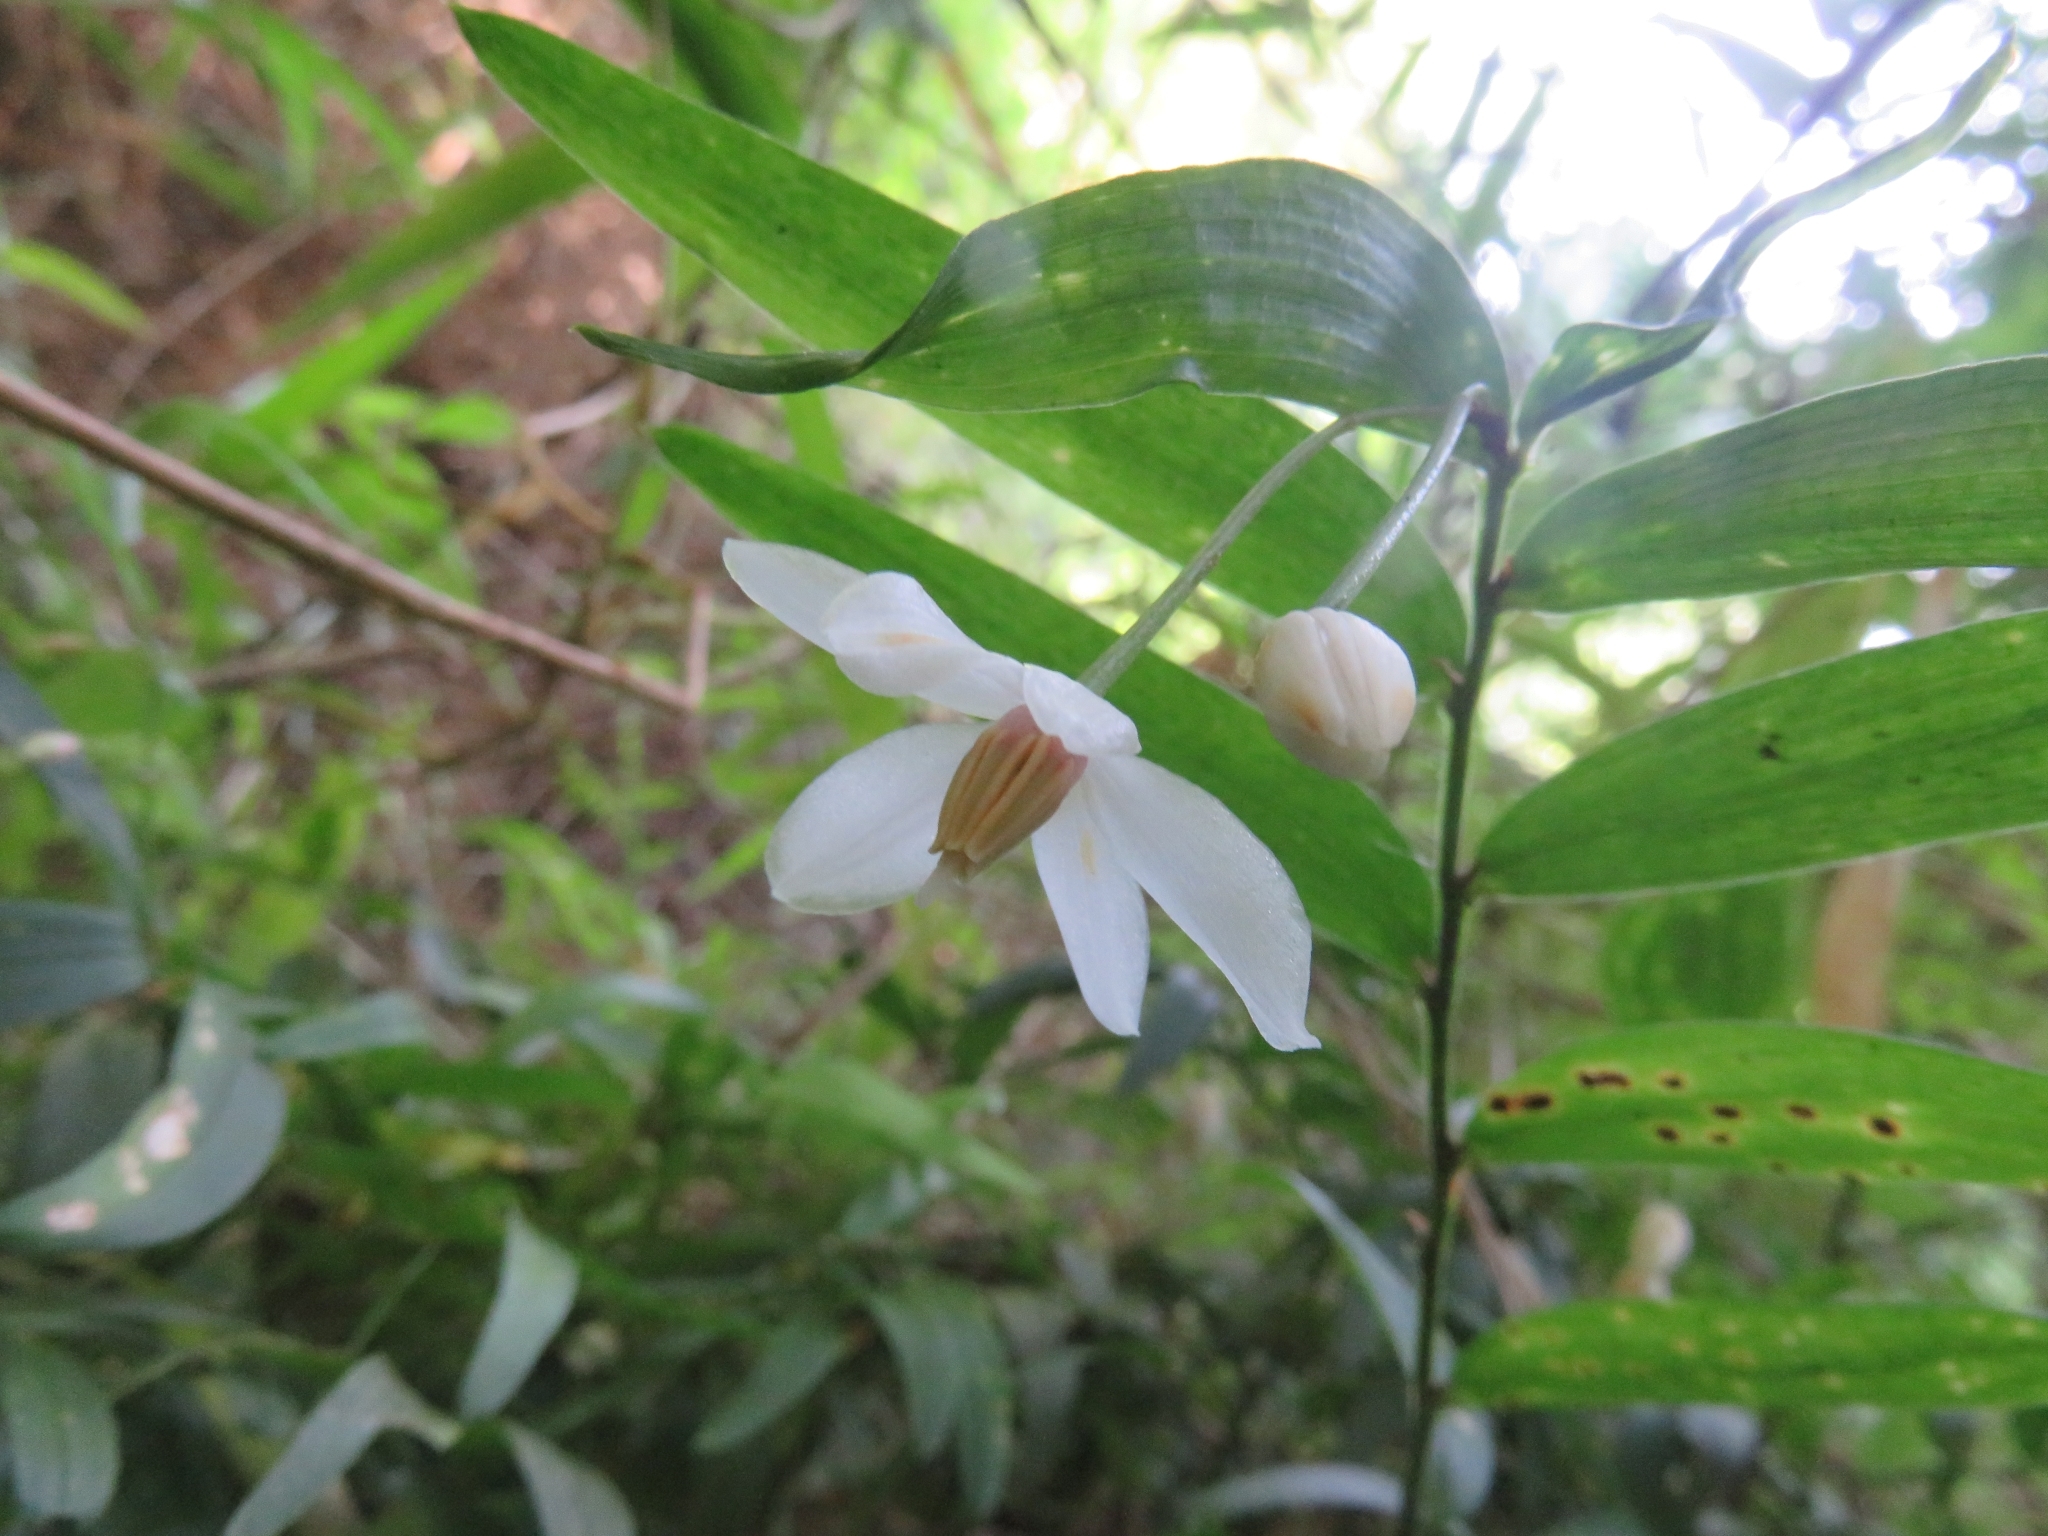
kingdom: Plantae
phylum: Tracheophyta
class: Liliopsida
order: Liliales
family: Alstroemeriaceae
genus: Luzuriaga
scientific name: Luzuriaga radicans
